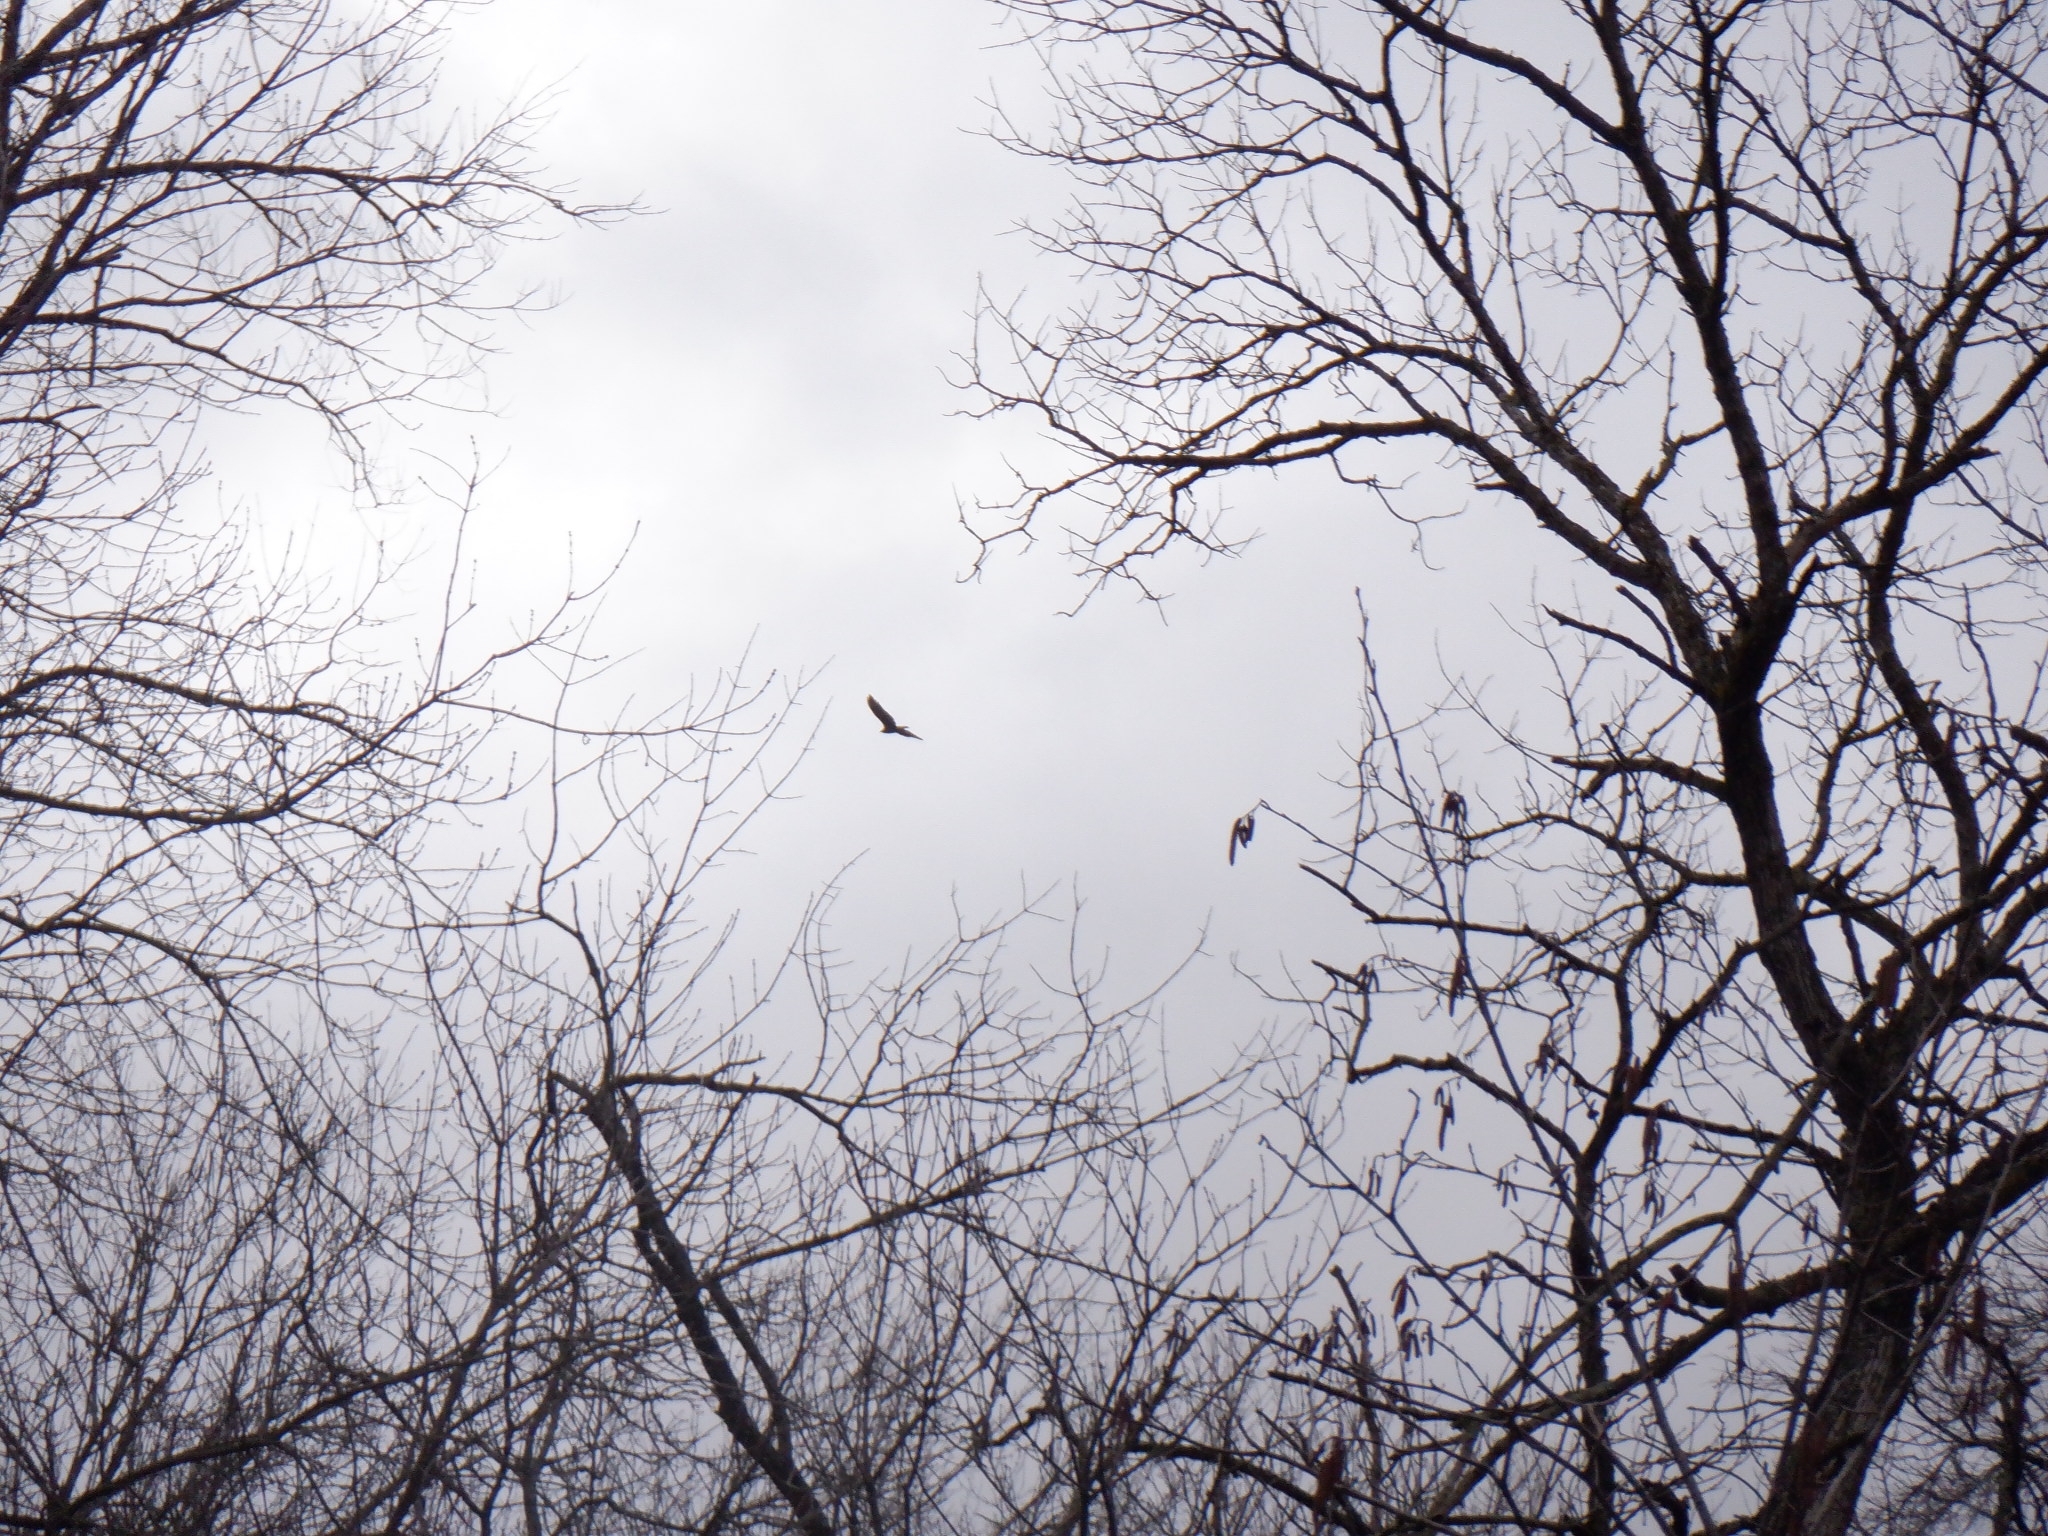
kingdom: Animalia
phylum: Chordata
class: Aves
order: Accipitriformes
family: Cathartidae
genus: Cathartes
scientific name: Cathartes aura
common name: Turkey vulture
